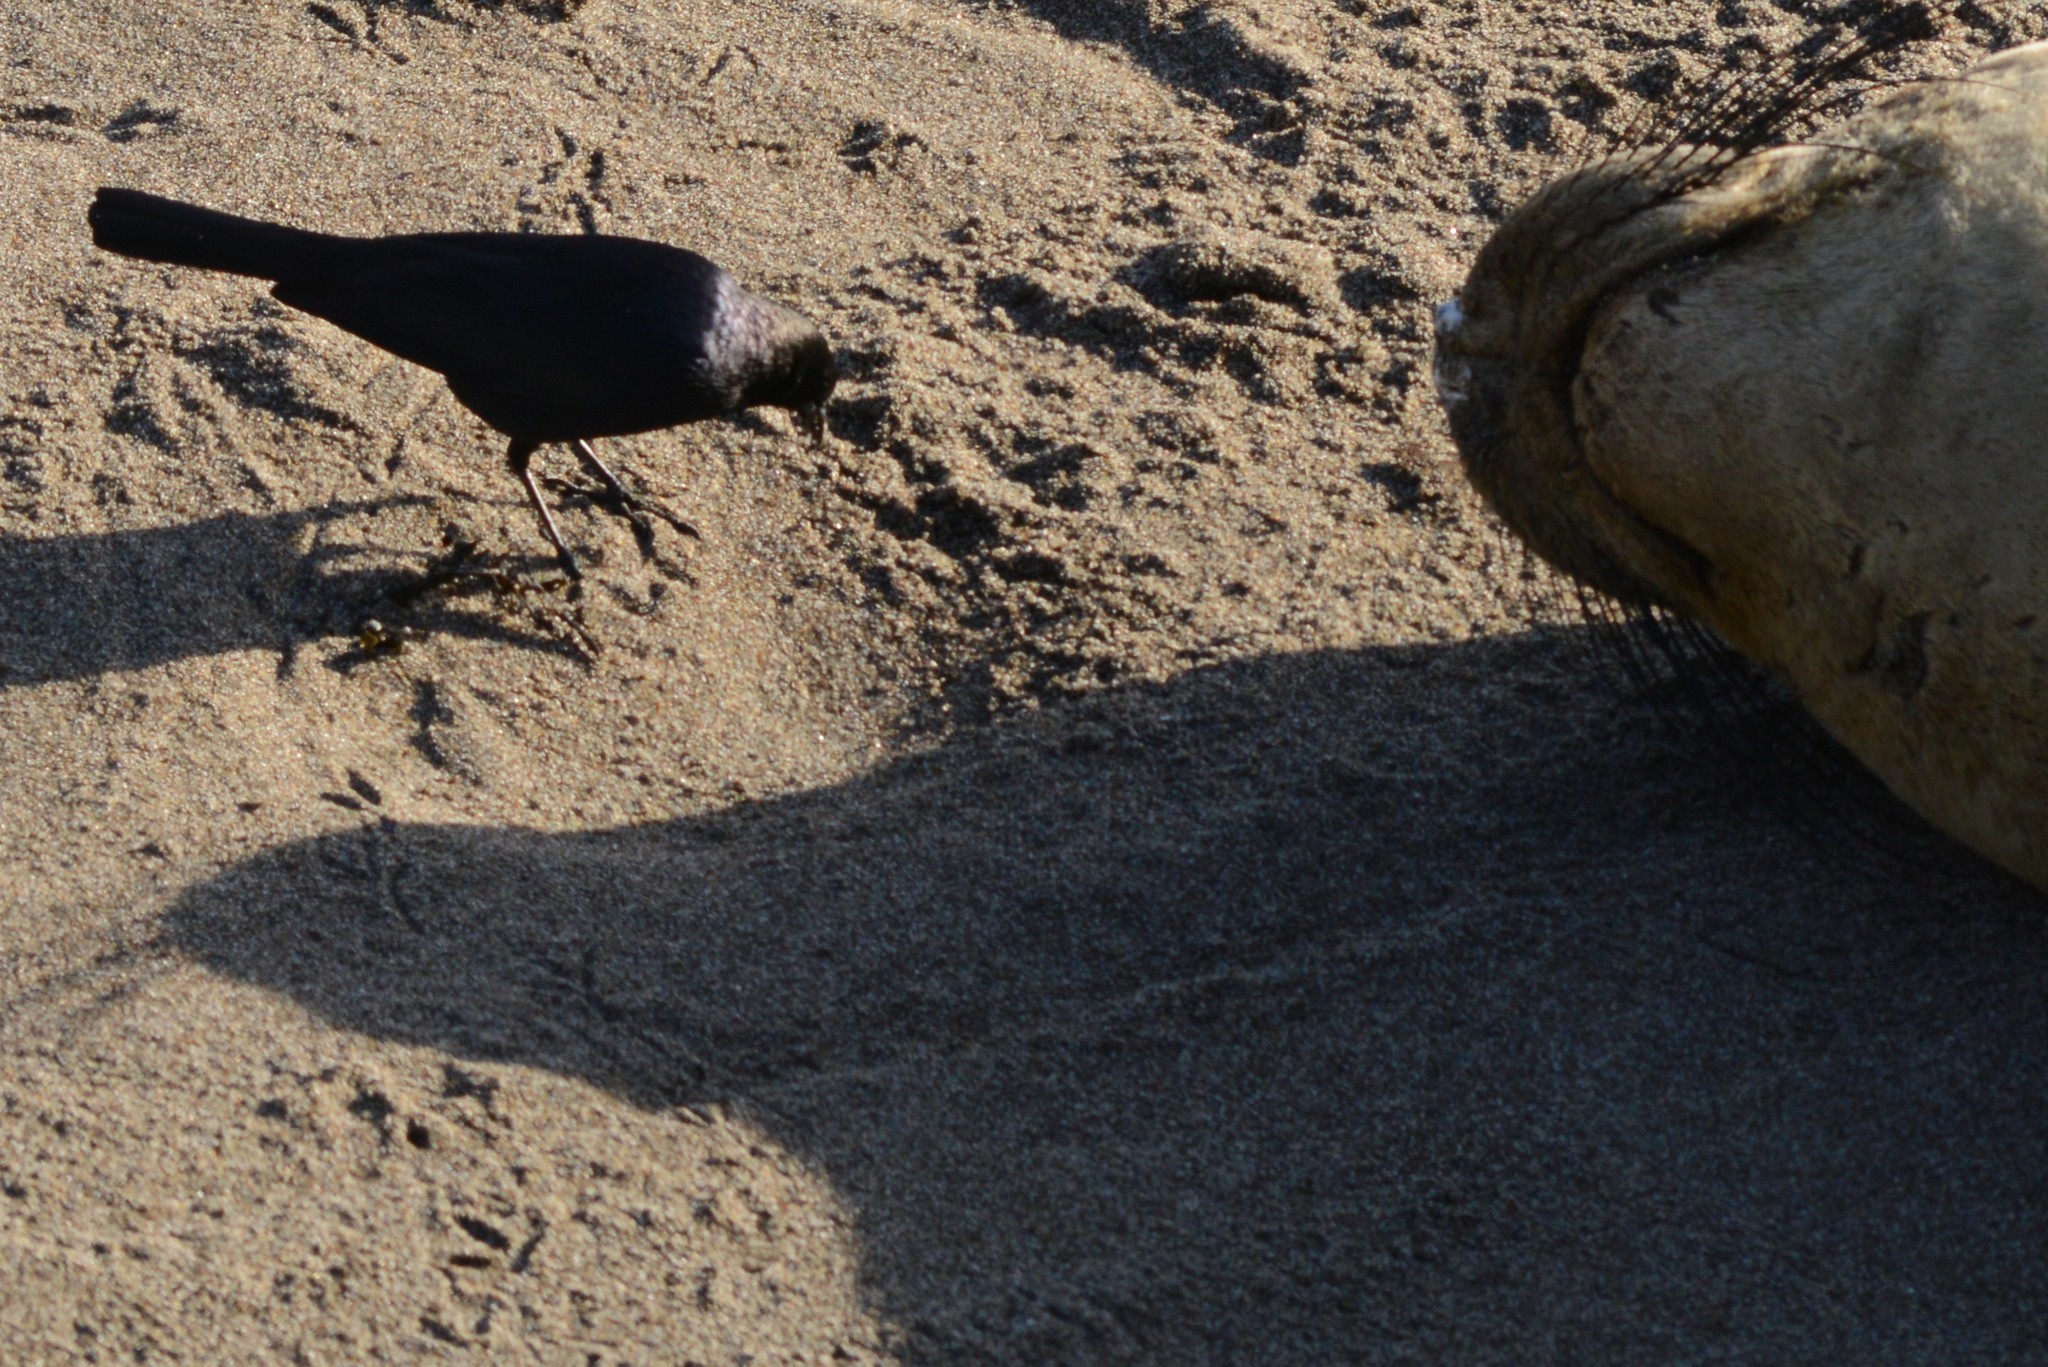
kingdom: Animalia
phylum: Chordata
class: Aves
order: Passeriformes
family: Icteridae
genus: Euphagus
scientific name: Euphagus cyanocephalus
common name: Brewer's blackbird
